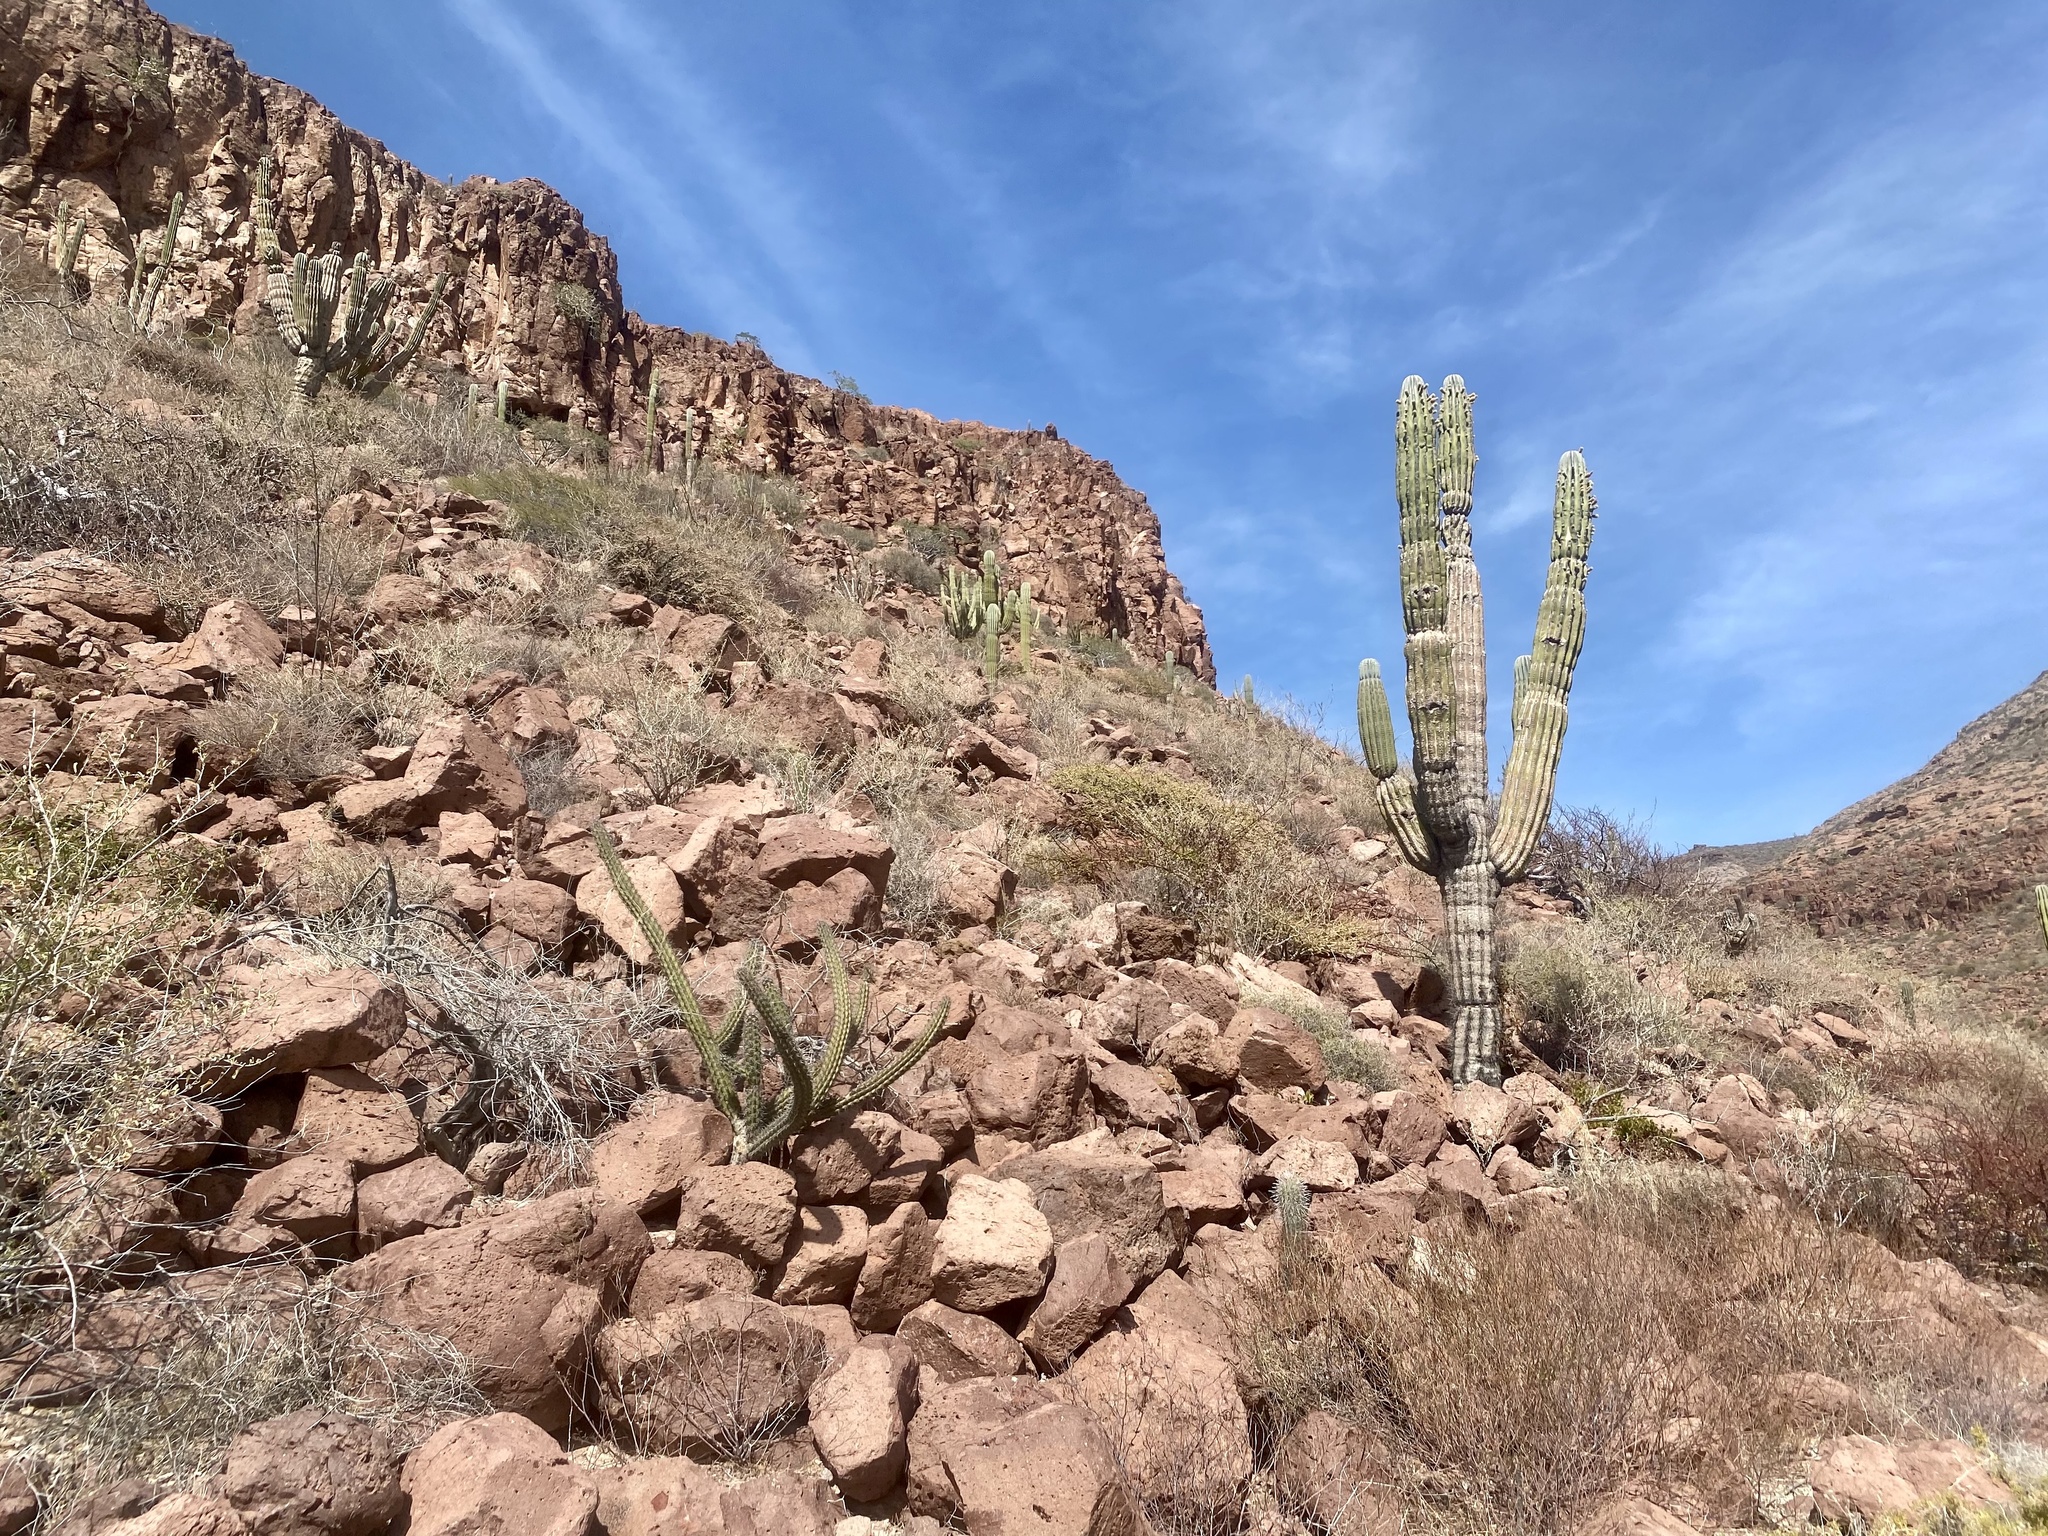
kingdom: Plantae
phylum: Tracheophyta
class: Magnoliopsida
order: Caryophyllales
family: Cactaceae
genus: Pachycereus
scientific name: Pachycereus pringlei
